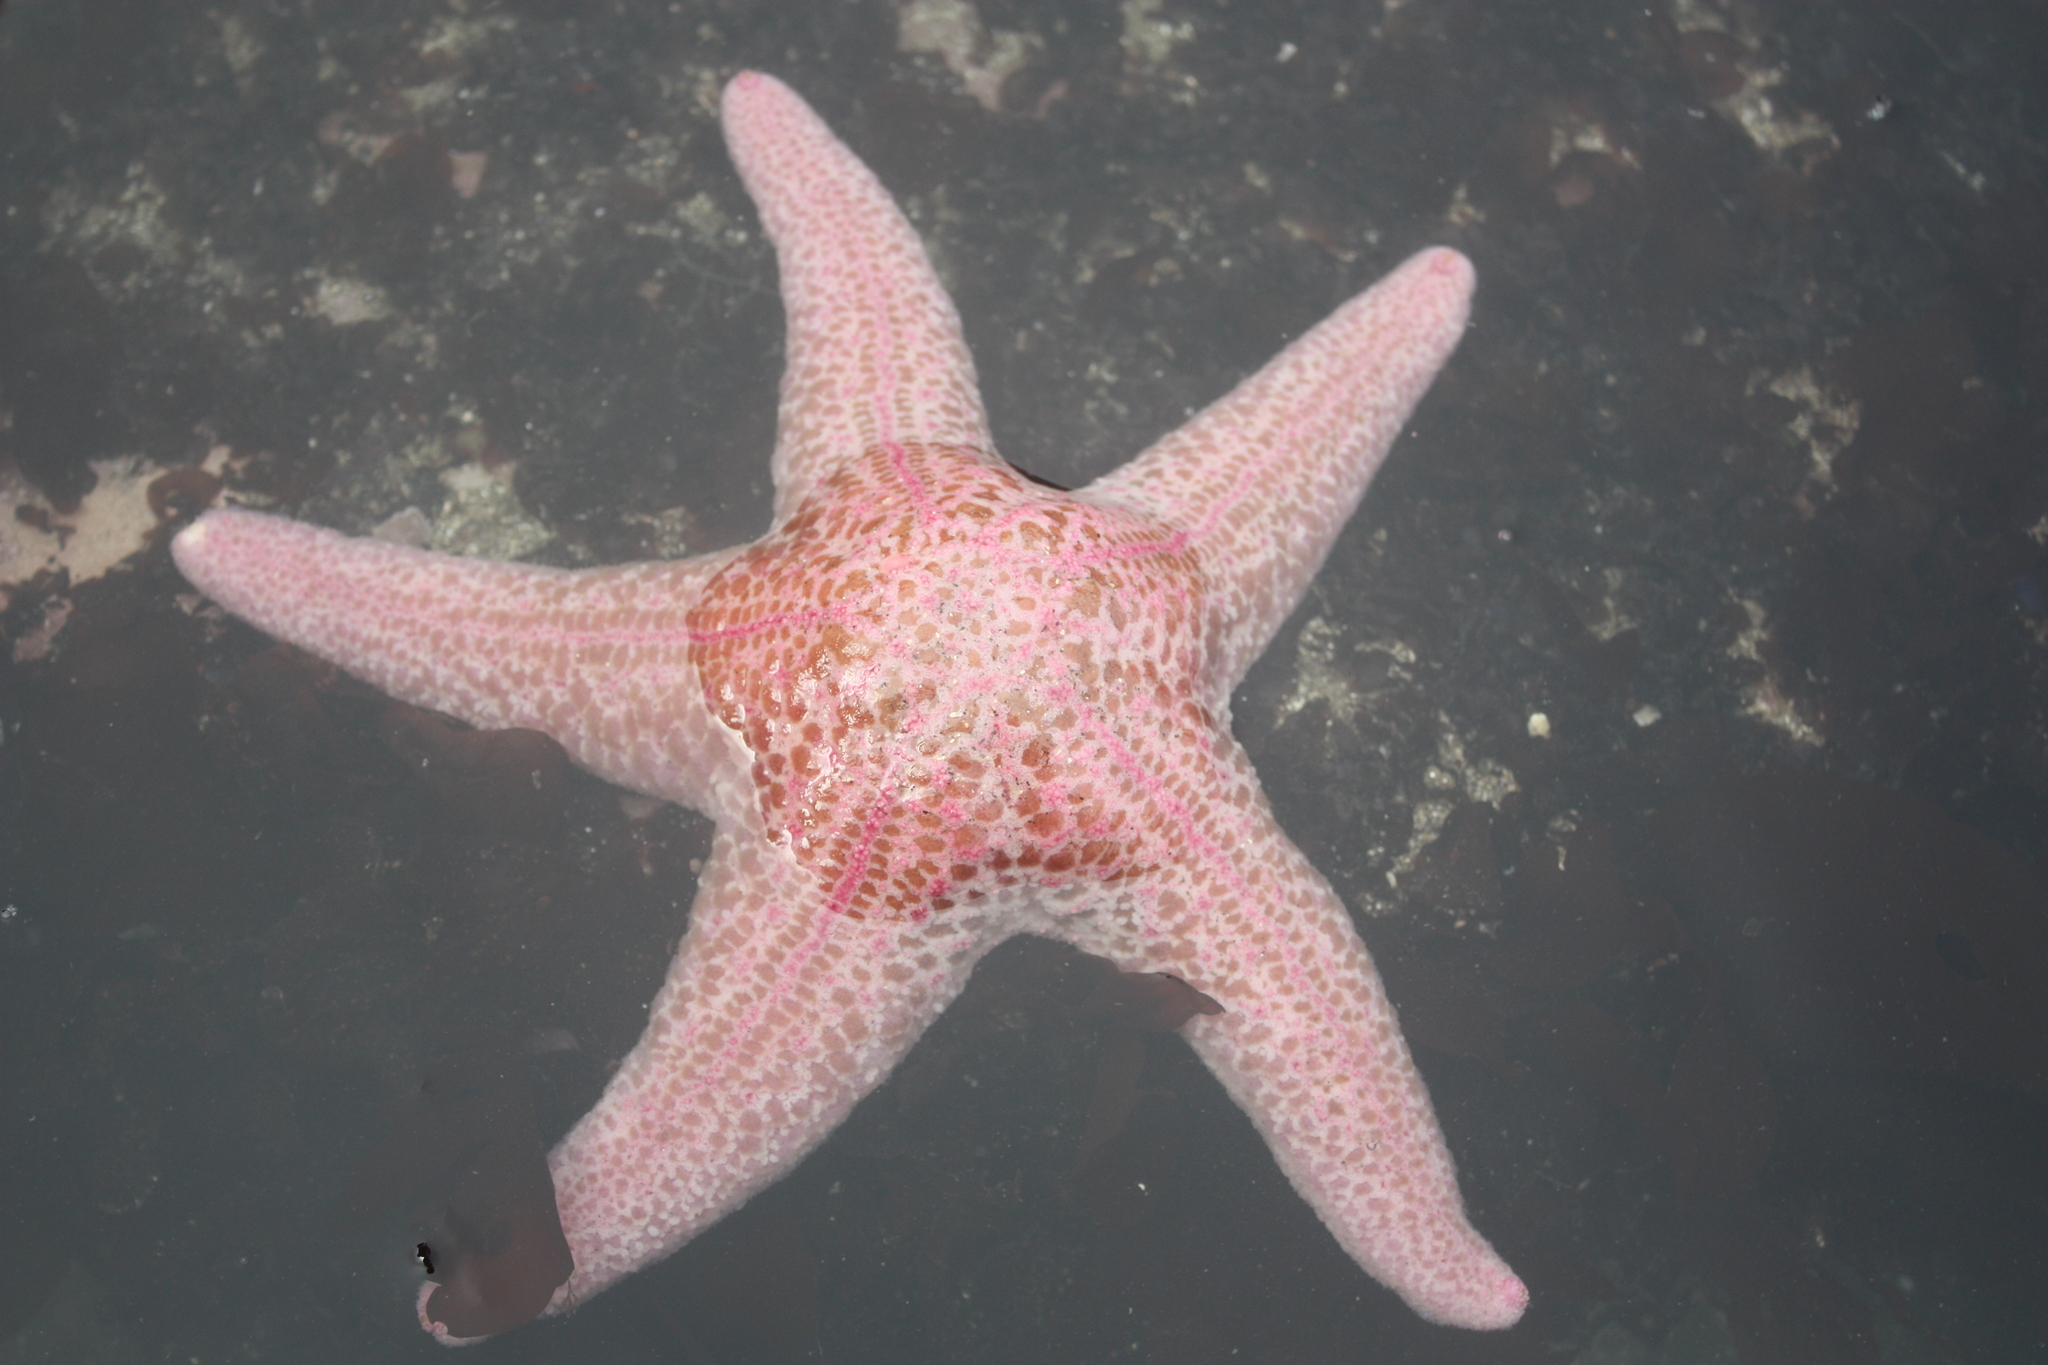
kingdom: Animalia
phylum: Echinodermata
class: Asteroidea
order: Forcipulatida
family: Asteriidae
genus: Pisaster
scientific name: Pisaster brevispinus
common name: Pink stars
